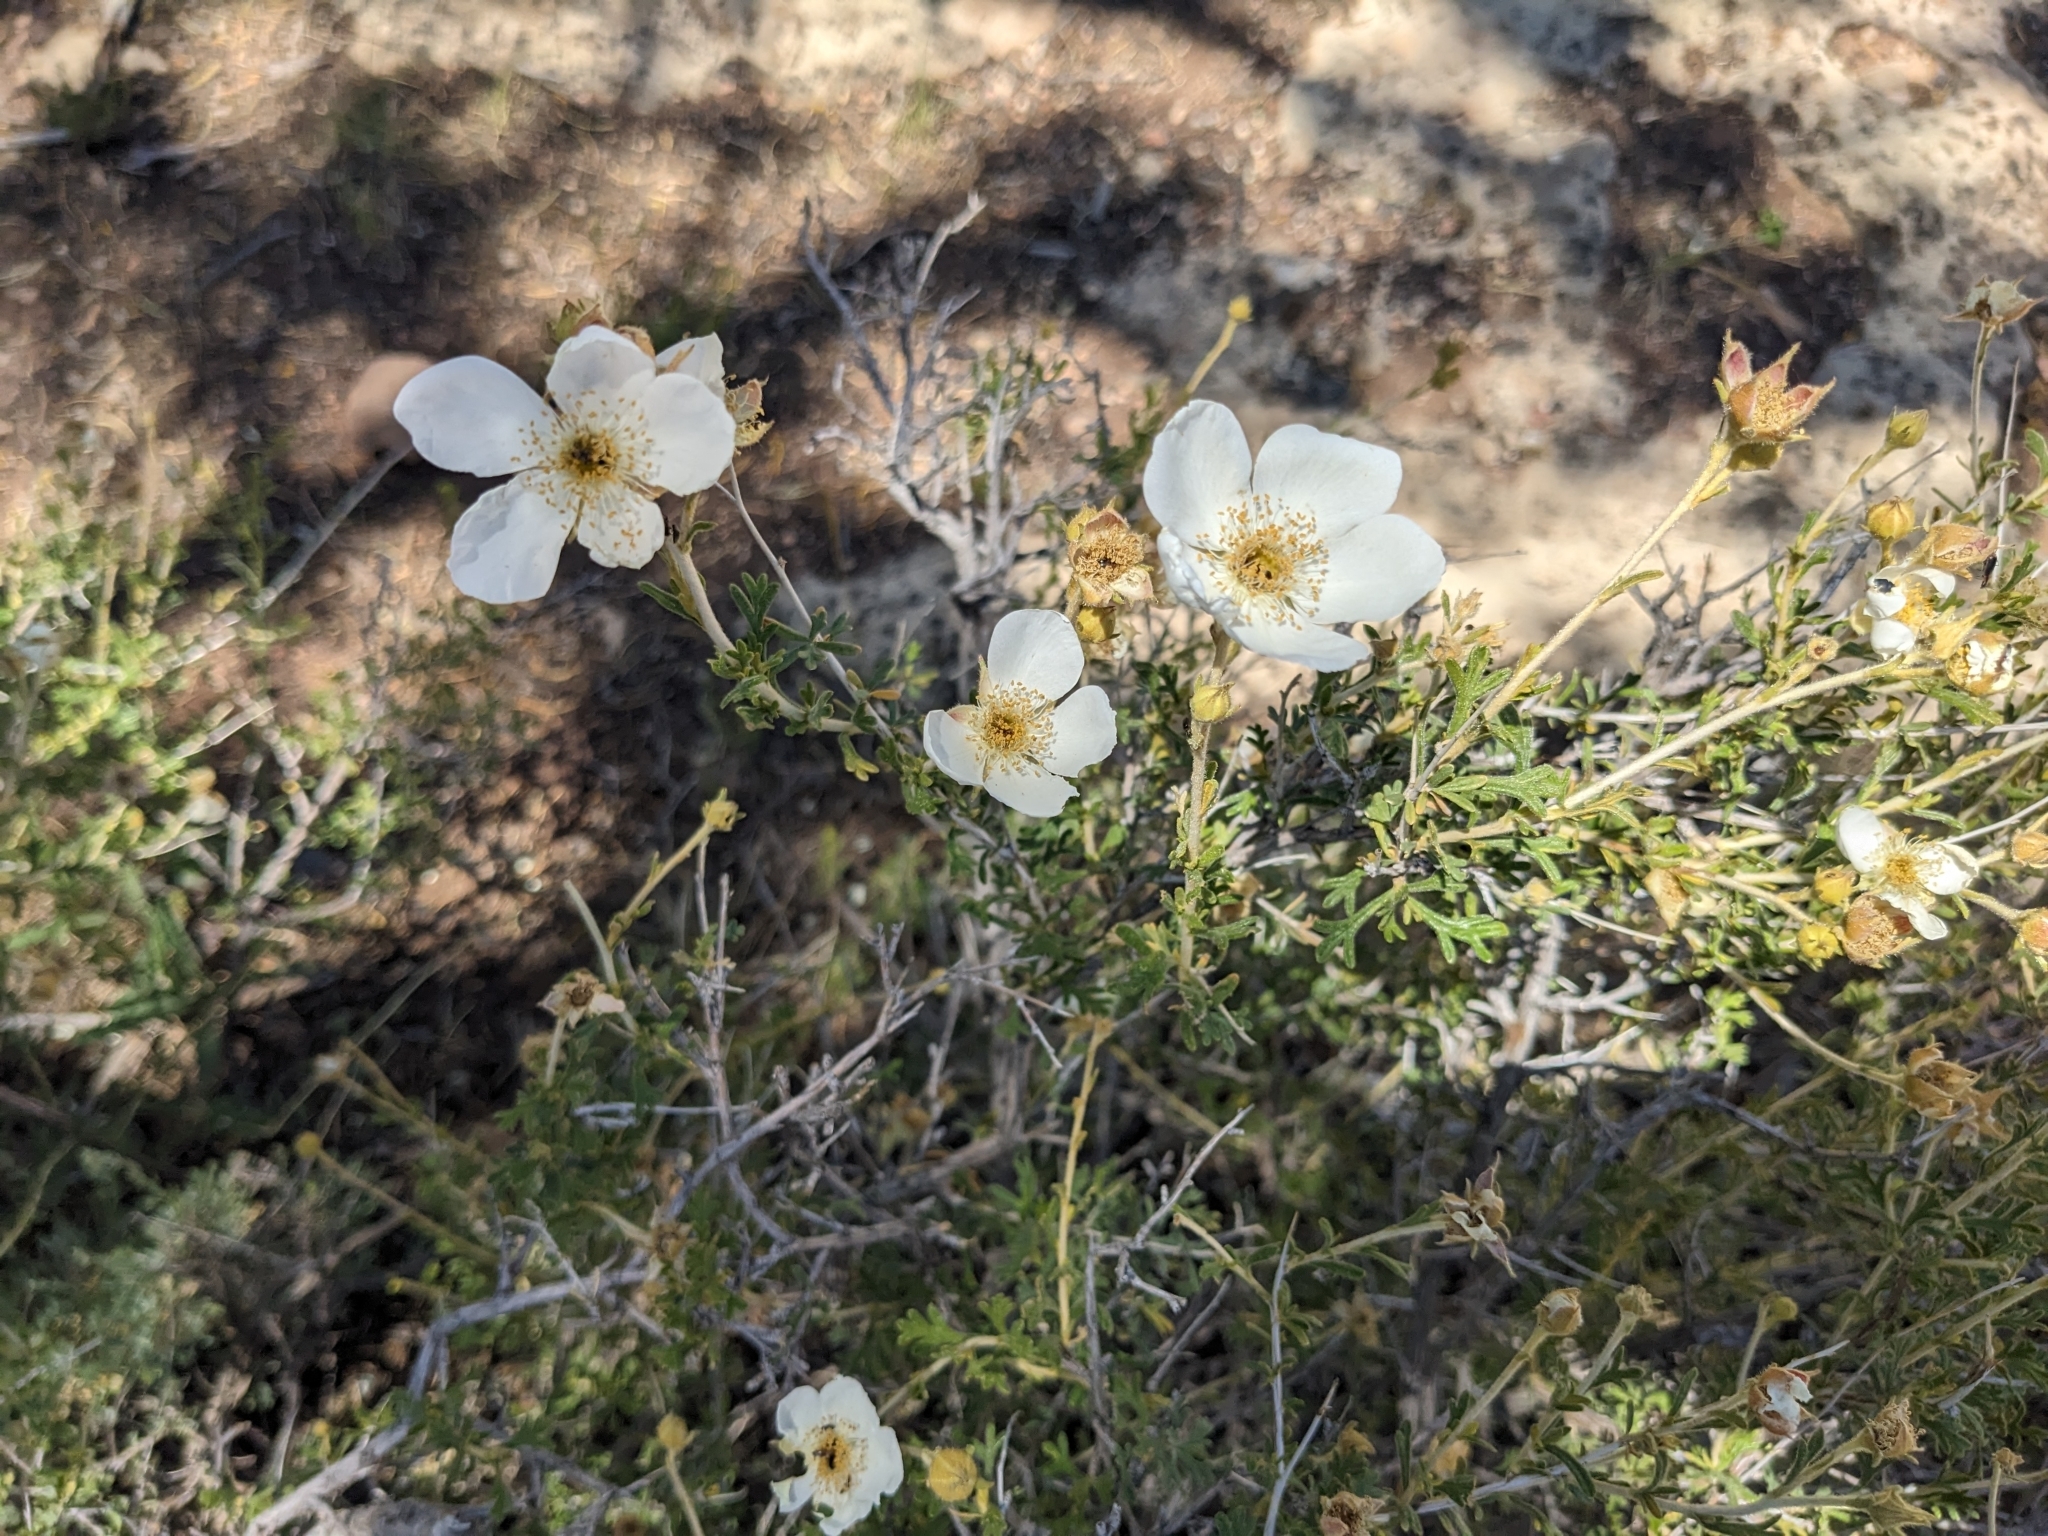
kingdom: Plantae
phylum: Tracheophyta
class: Magnoliopsida
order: Rosales
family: Rosaceae
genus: Fallugia
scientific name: Fallugia paradoxa
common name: Apache-plume
